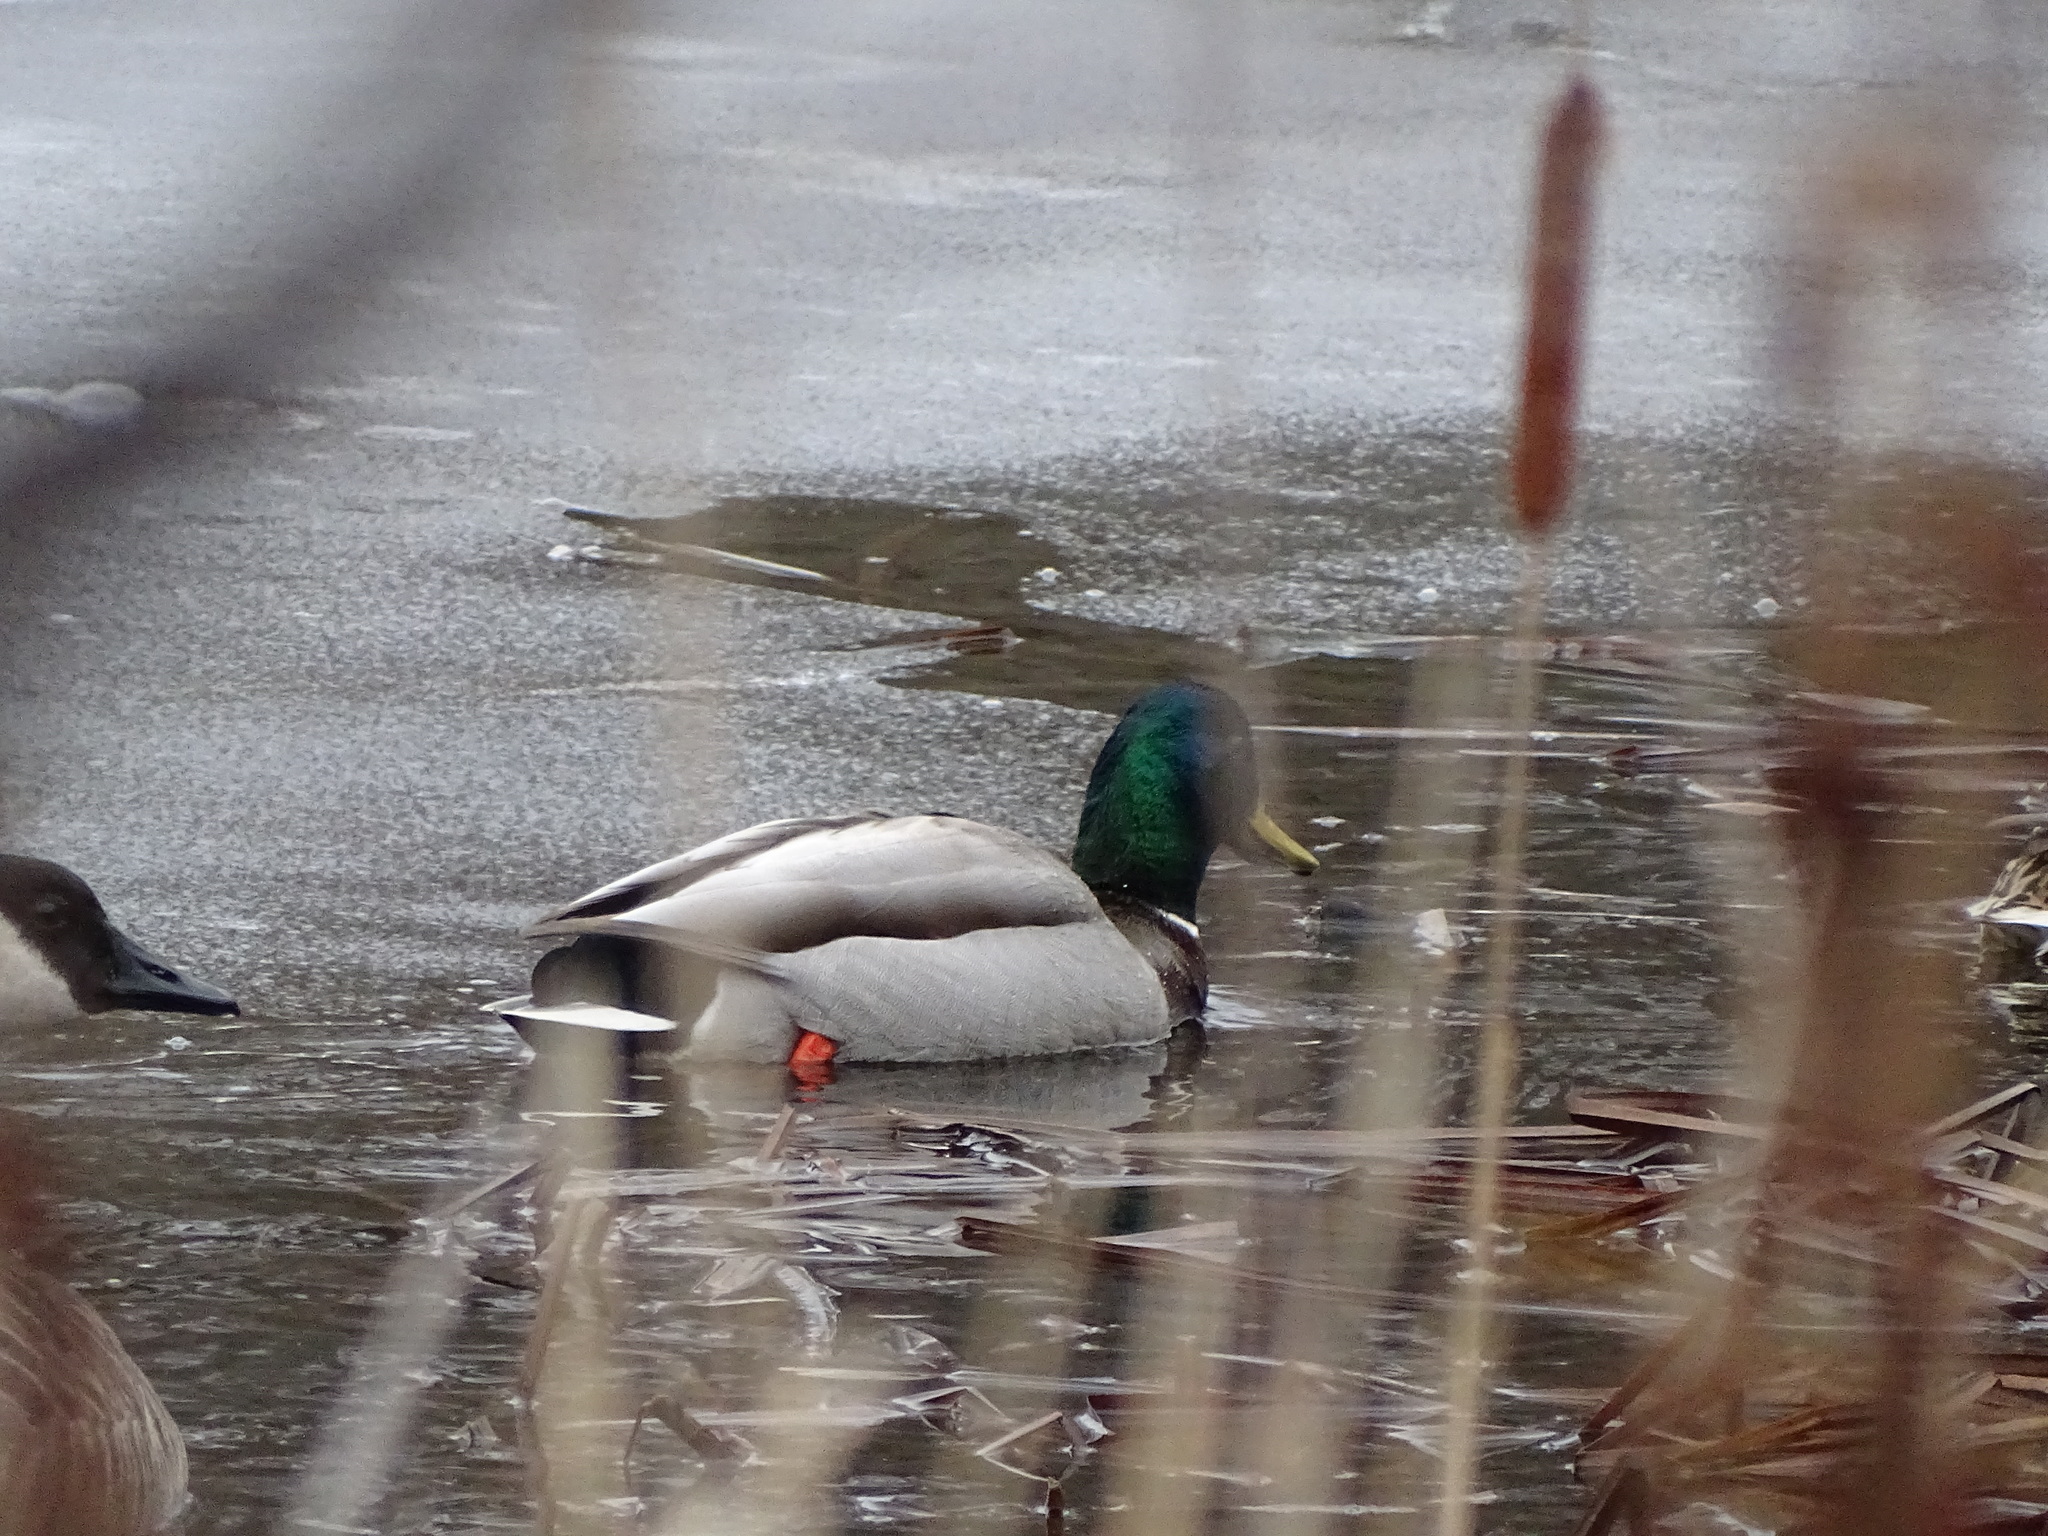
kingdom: Animalia
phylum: Chordata
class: Aves
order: Anseriformes
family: Anatidae
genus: Anas
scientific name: Anas platyrhynchos
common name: Mallard
